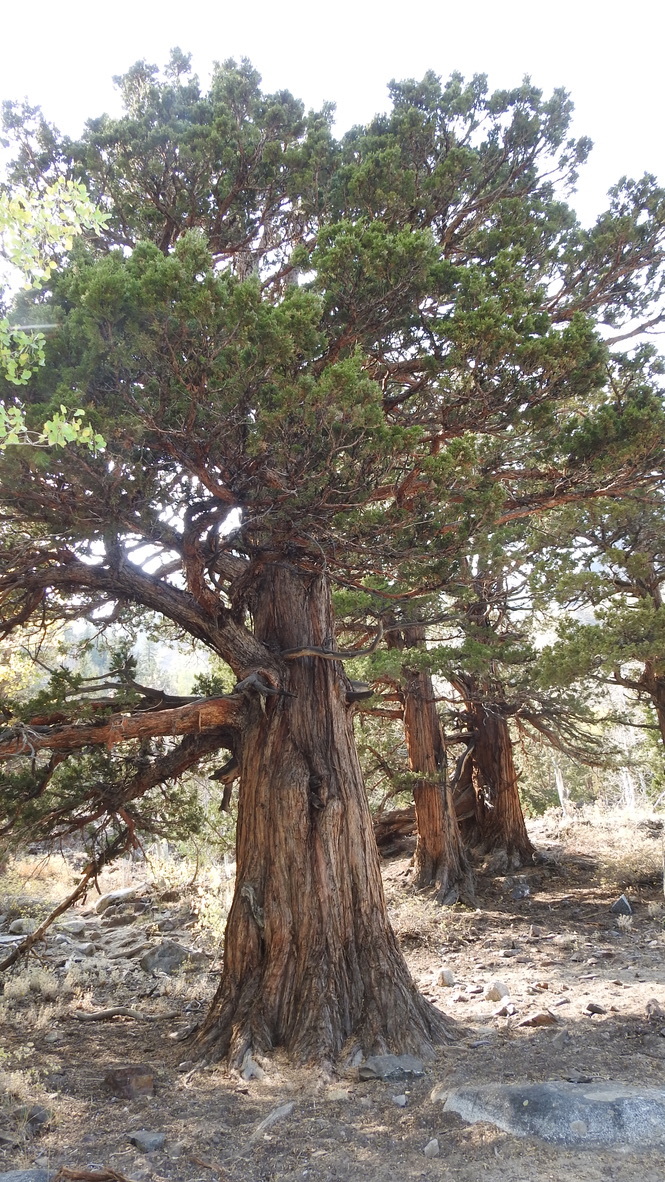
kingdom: Plantae
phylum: Tracheophyta
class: Pinopsida
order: Pinales
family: Cupressaceae
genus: Juniperus
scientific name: Juniperus occidentalis
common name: Western juniper
